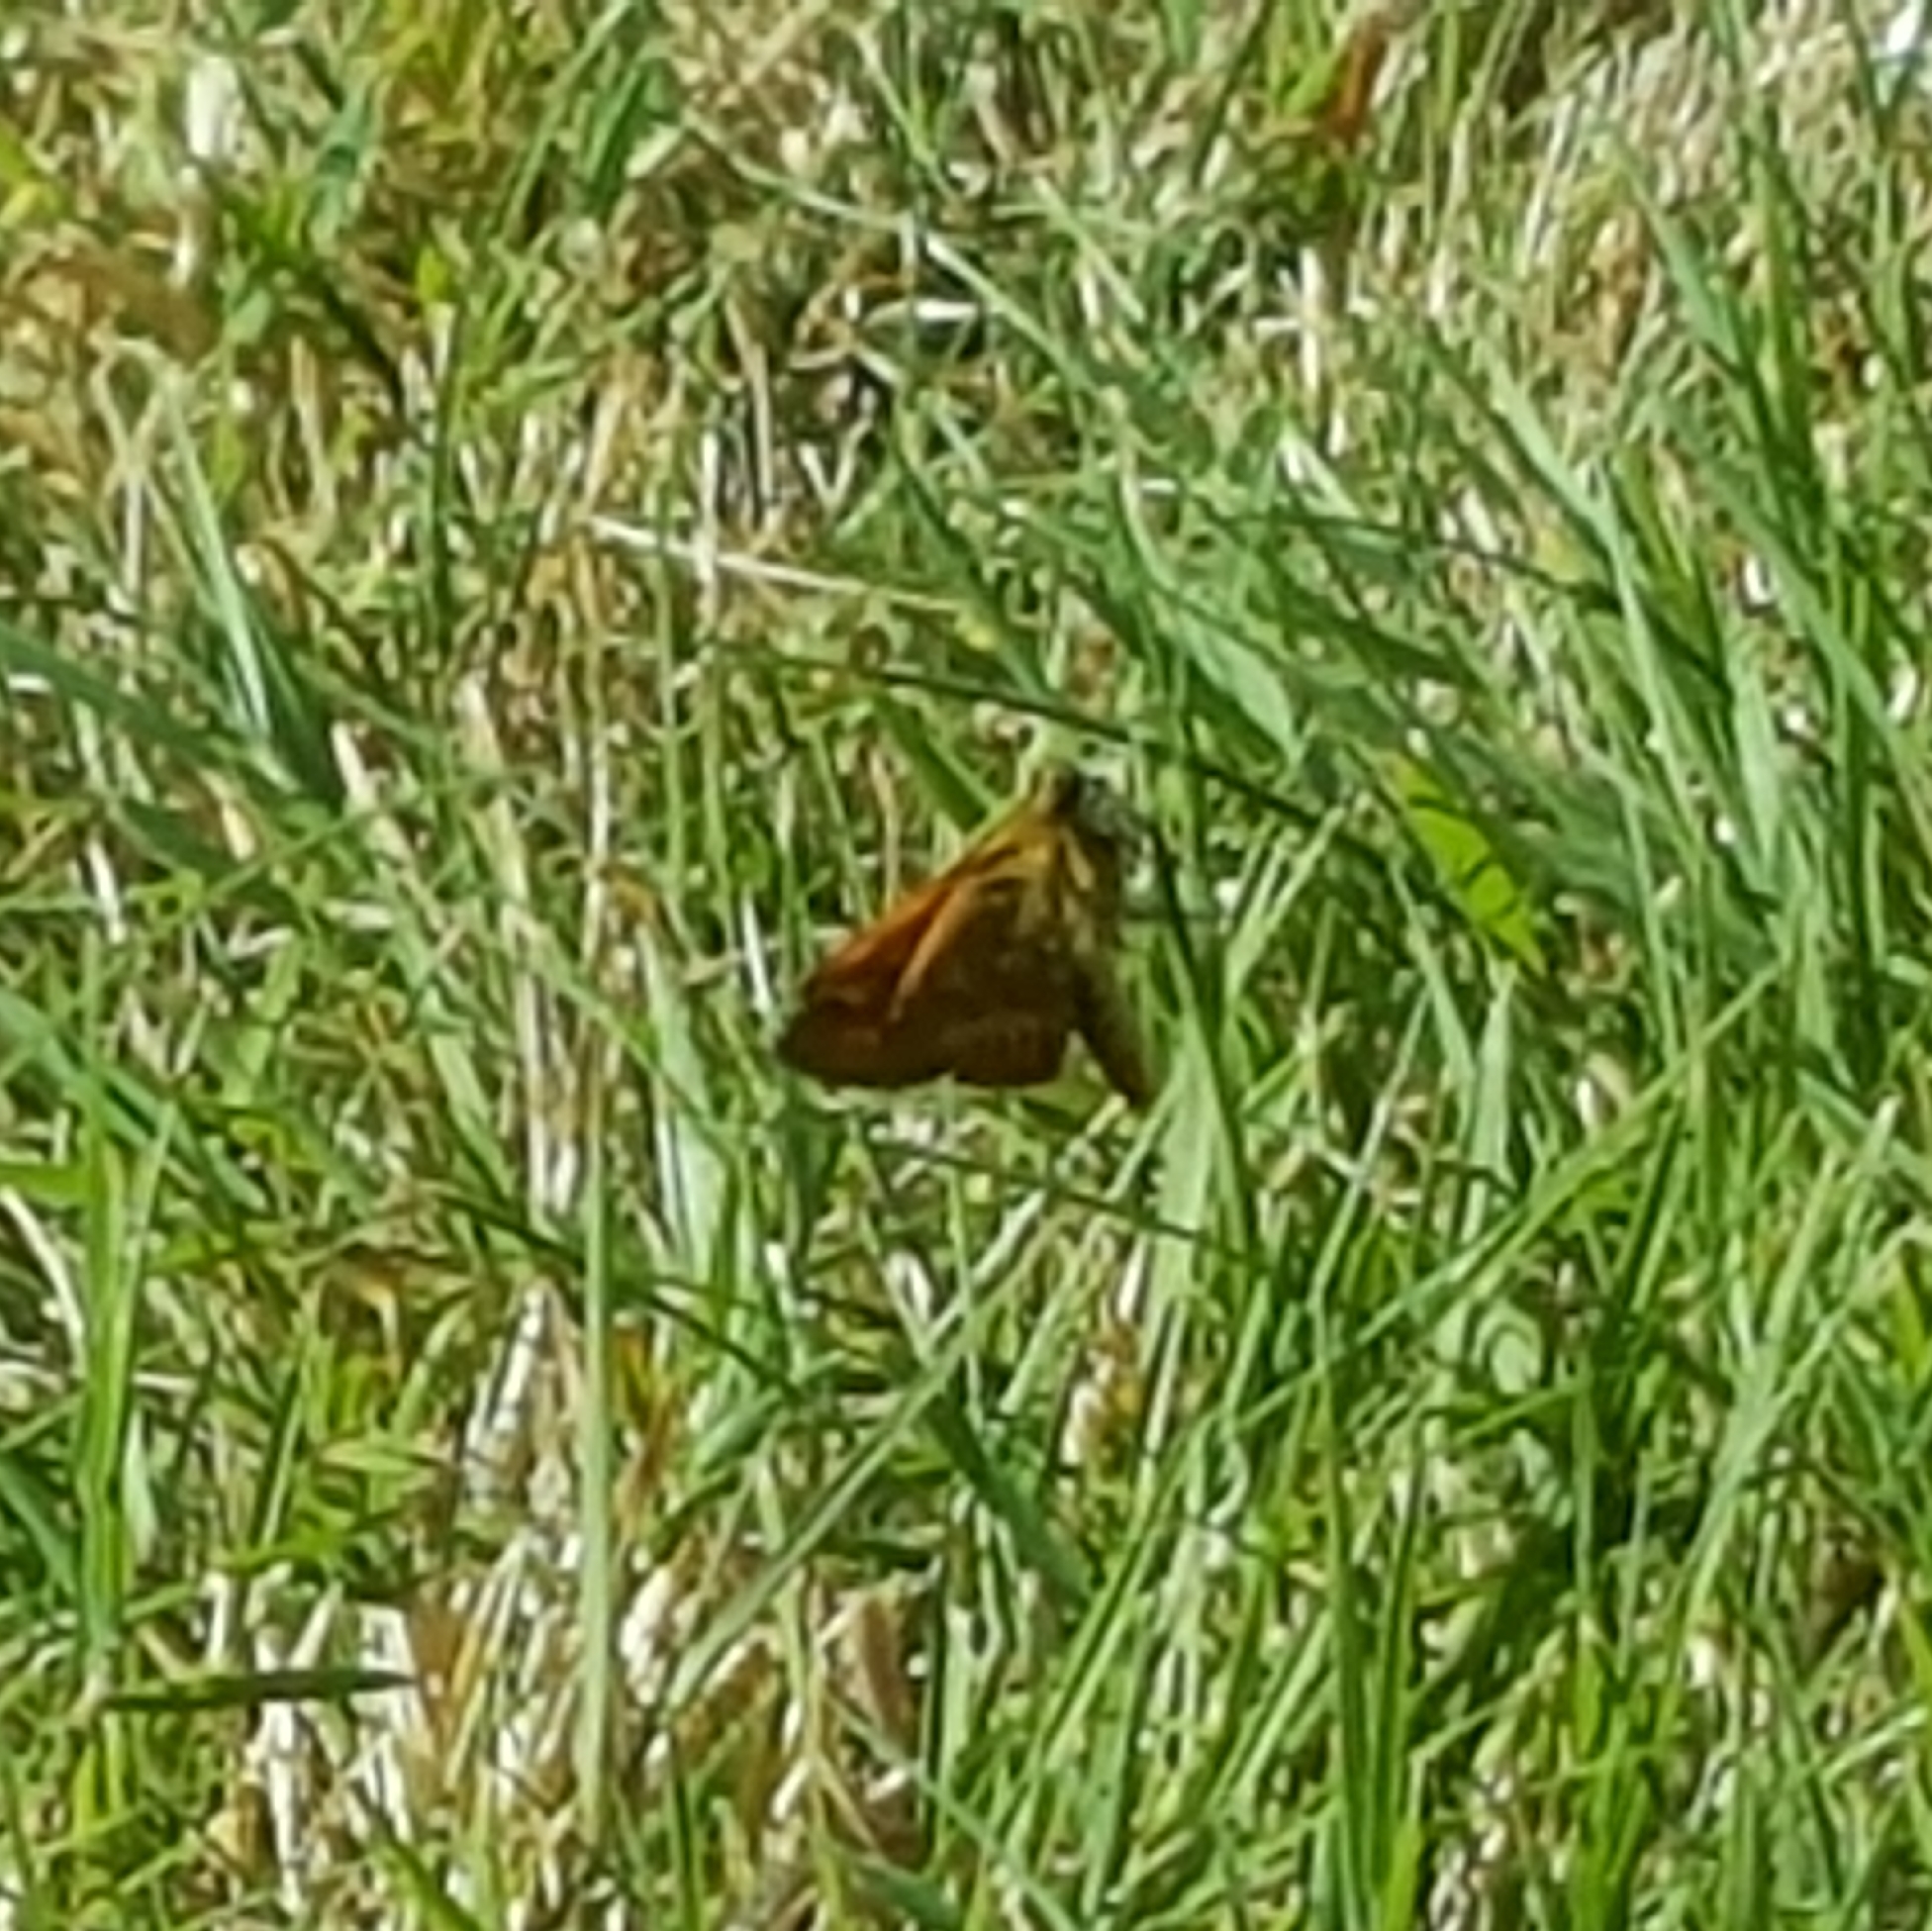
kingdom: Animalia
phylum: Arthropoda
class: Insecta
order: Lepidoptera
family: Hesperiidae
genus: Ochlodes
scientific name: Ochlodes sylvanoides
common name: Woodland skipper
